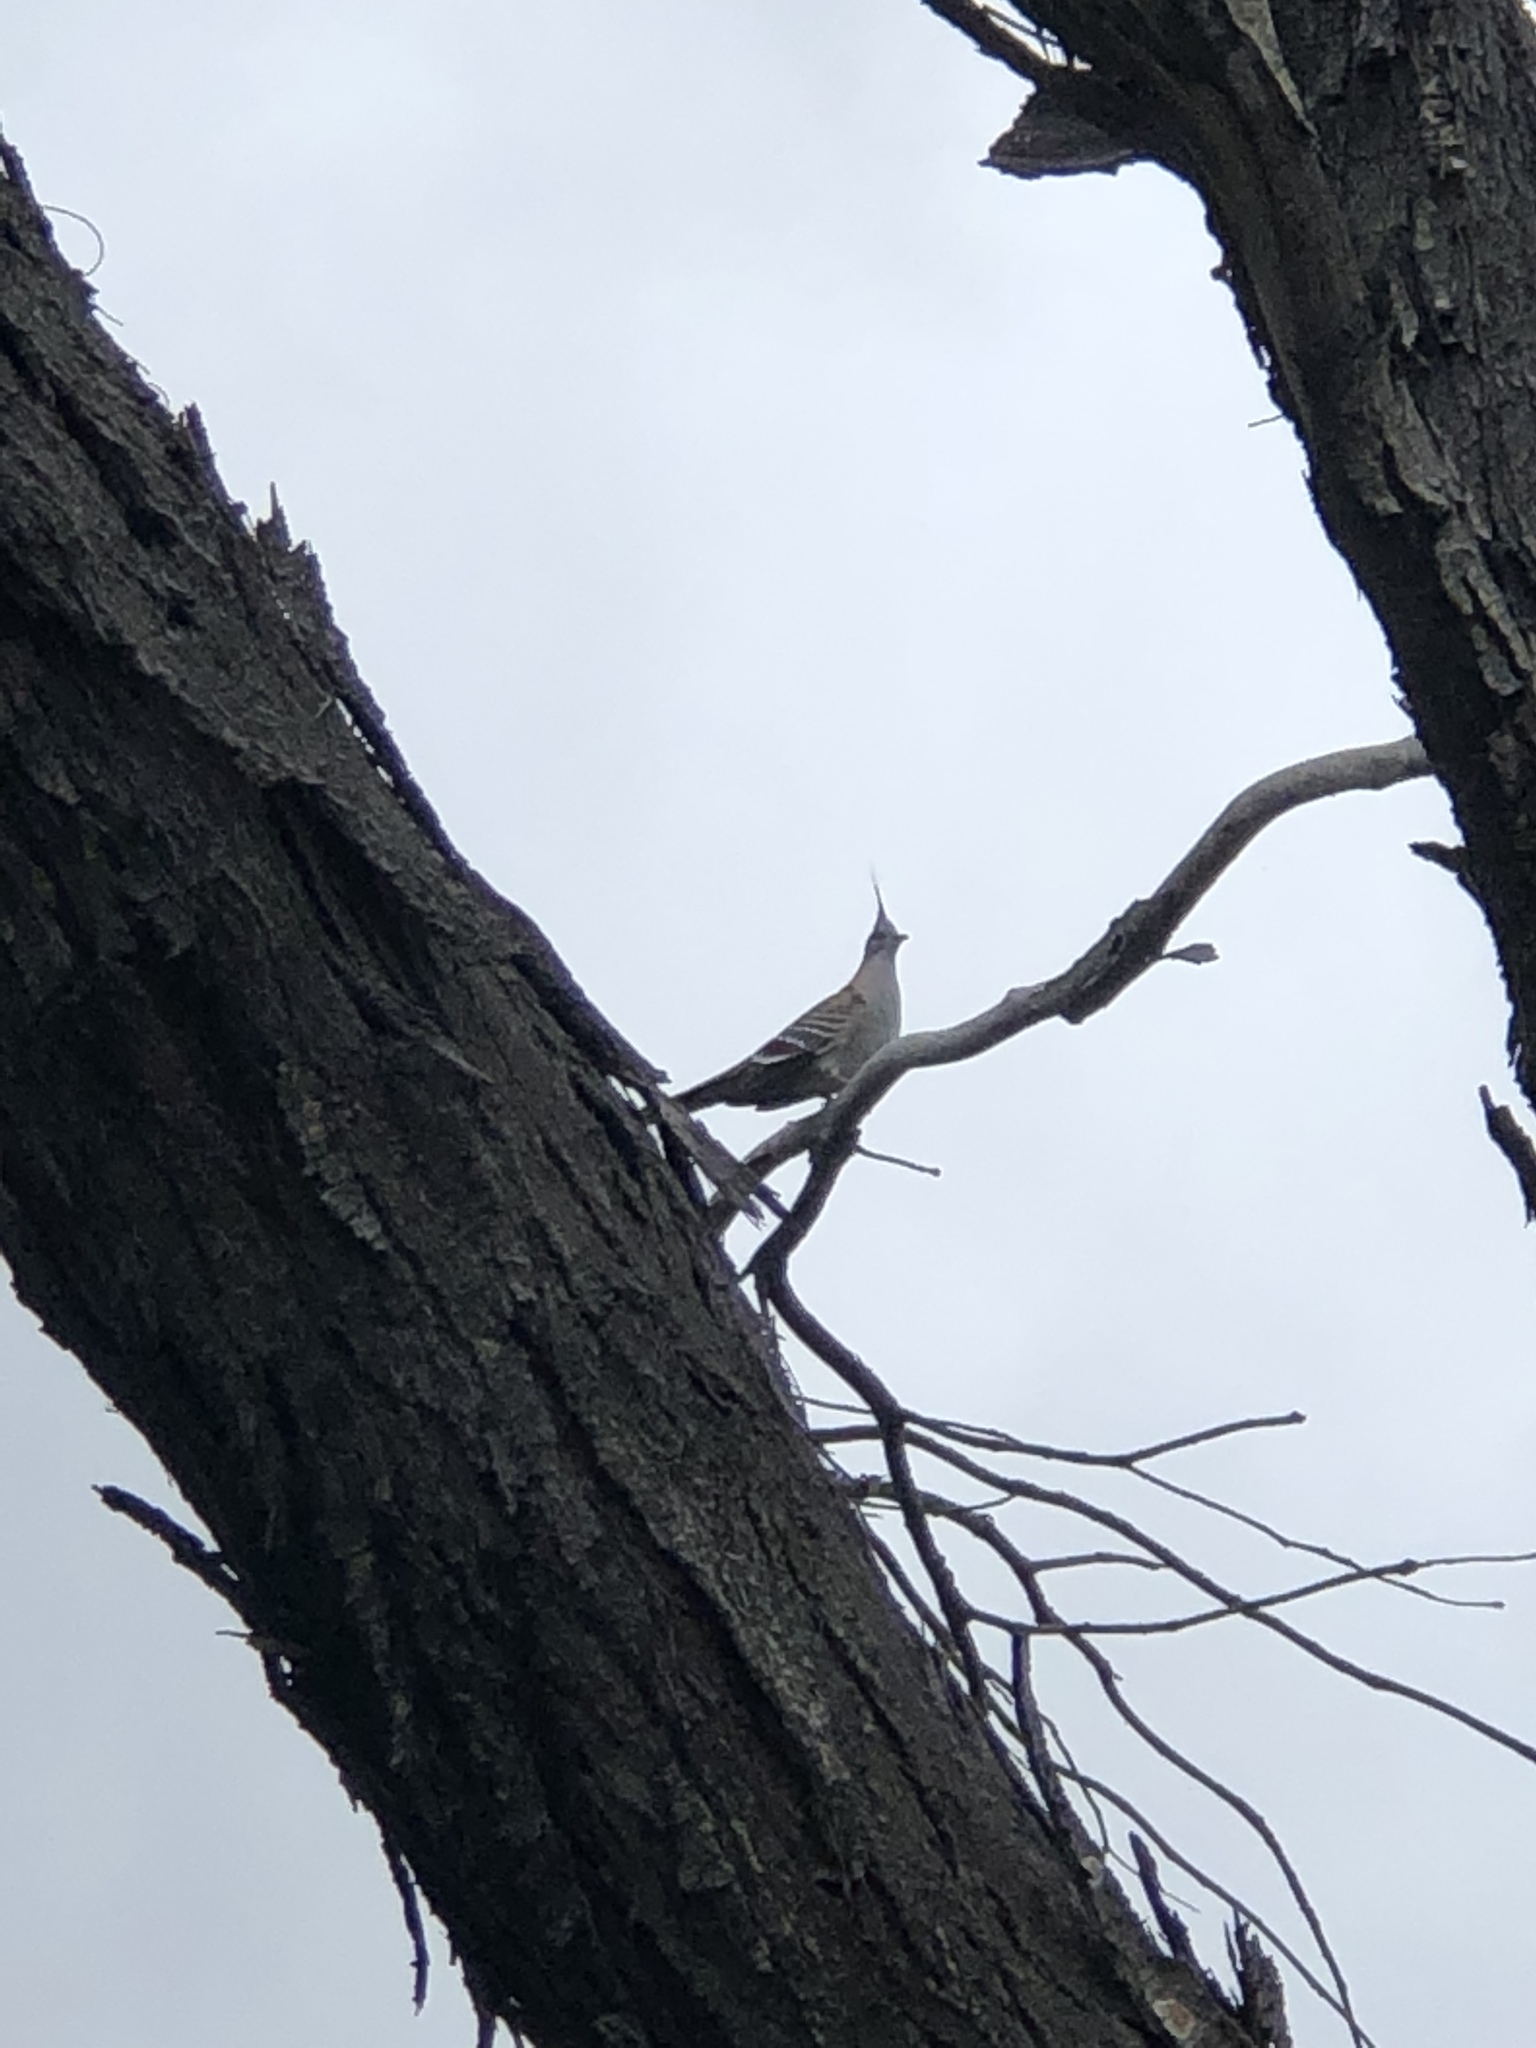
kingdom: Animalia
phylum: Chordata
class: Aves
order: Columbiformes
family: Columbidae
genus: Ocyphaps
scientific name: Ocyphaps lophotes
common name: Crested pigeon
